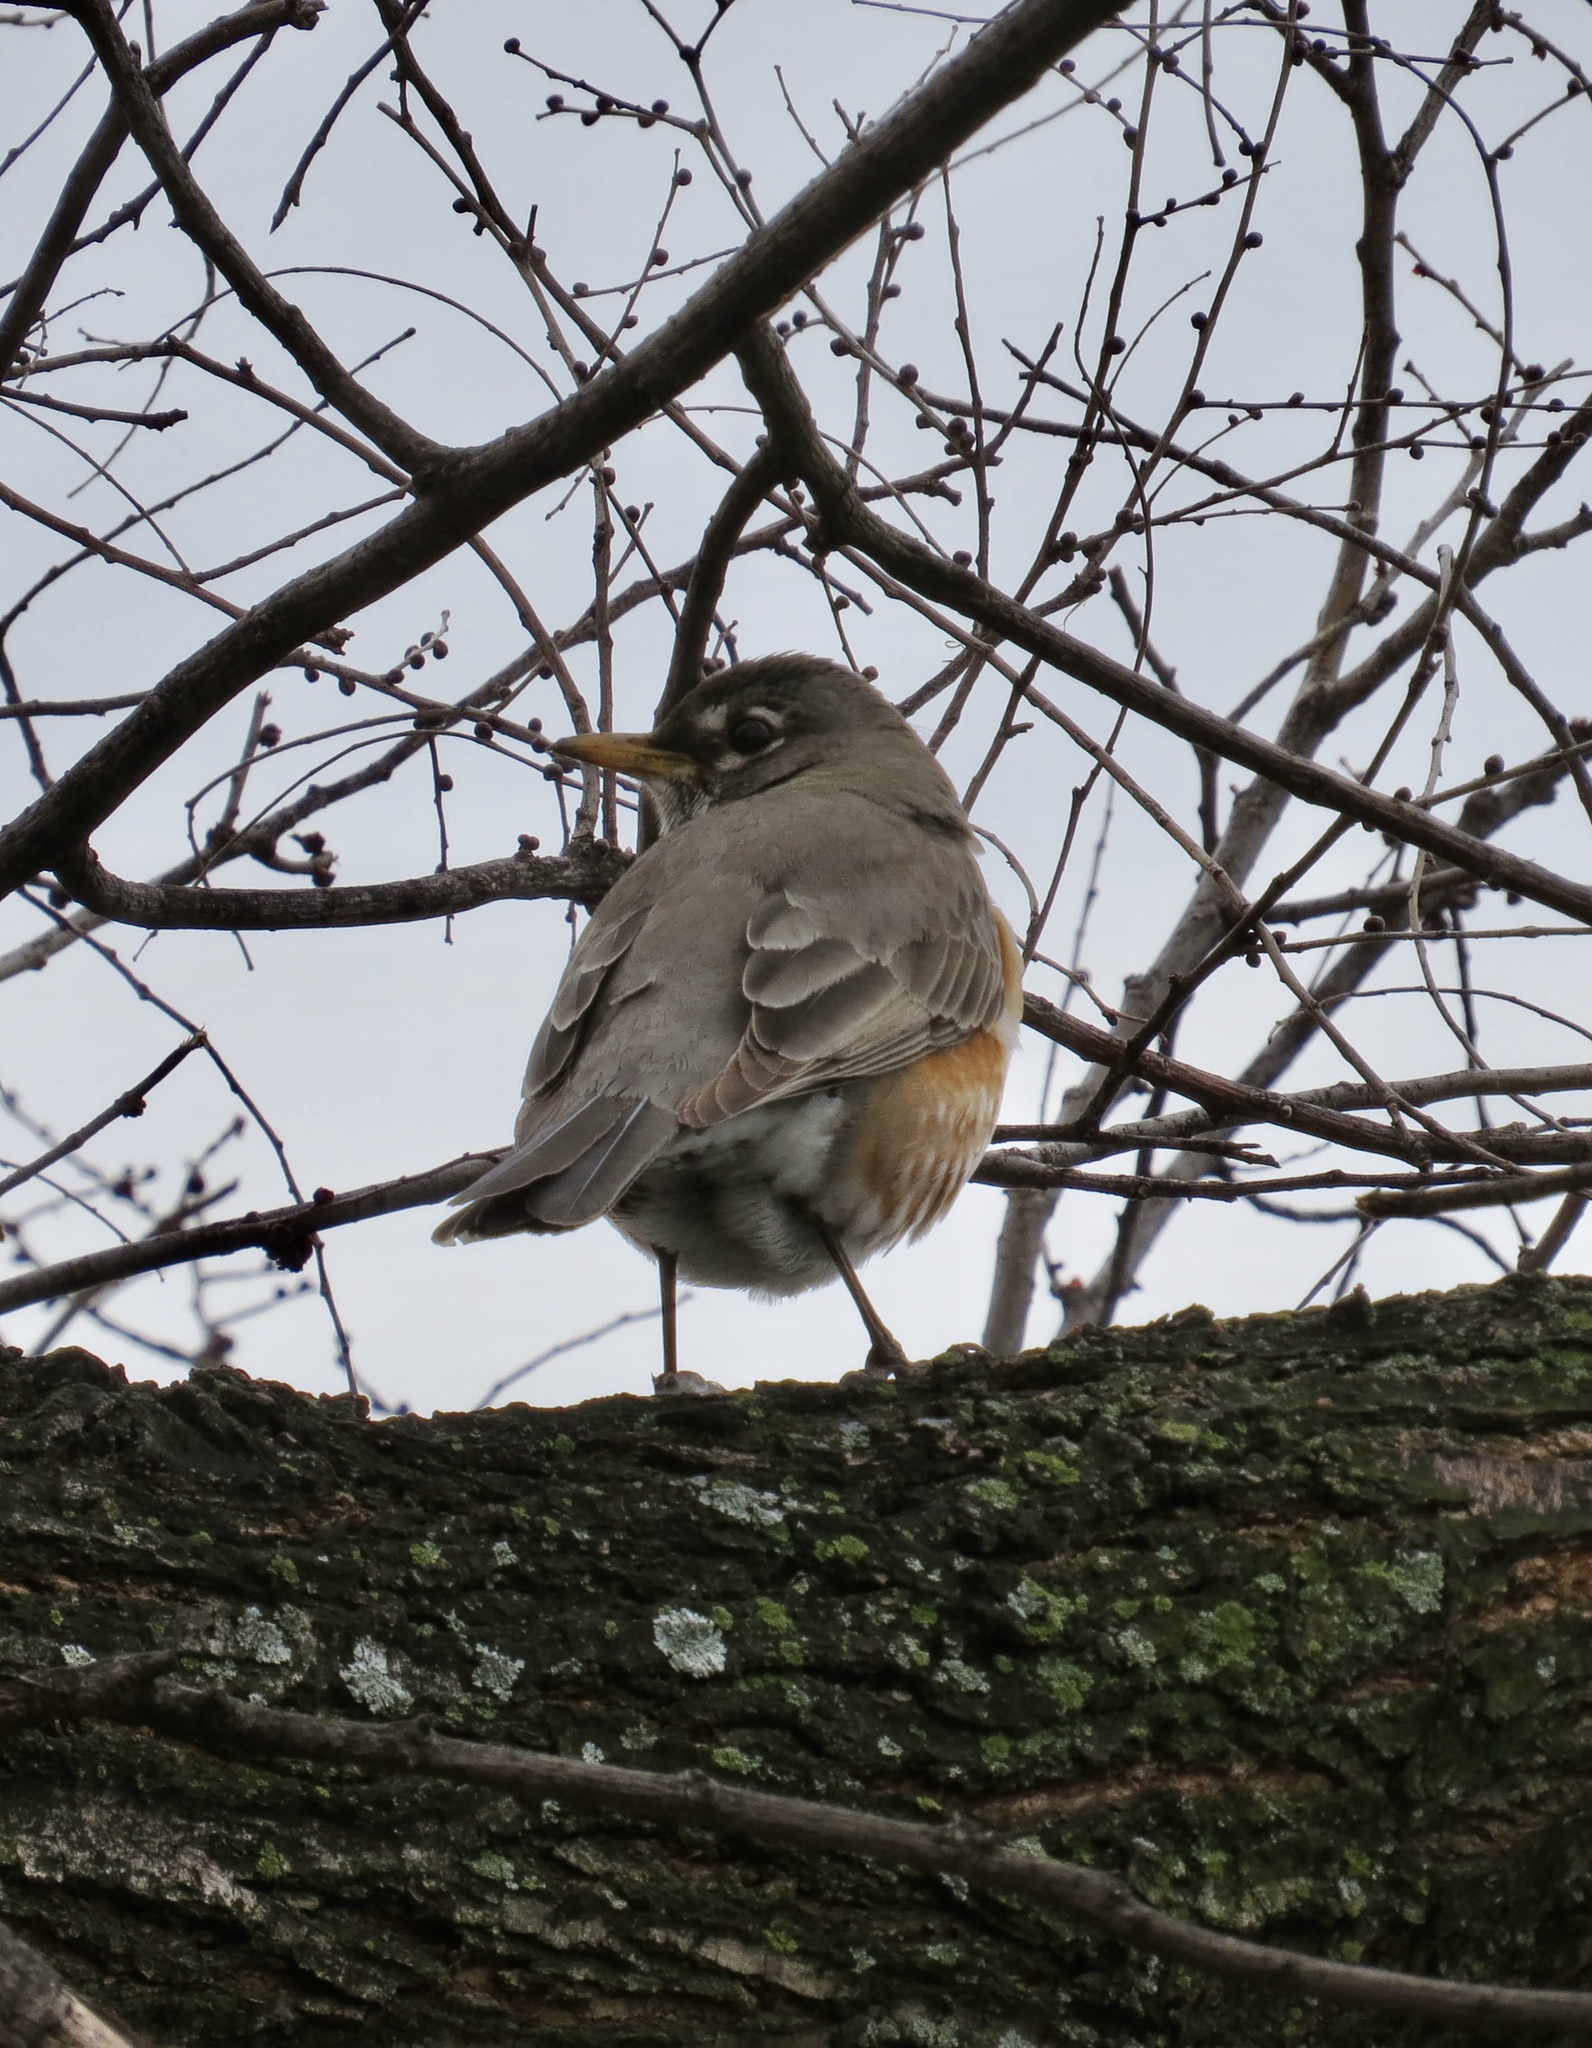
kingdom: Animalia
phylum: Chordata
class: Aves
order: Passeriformes
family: Turdidae
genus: Turdus
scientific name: Turdus migratorius
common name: American robin
